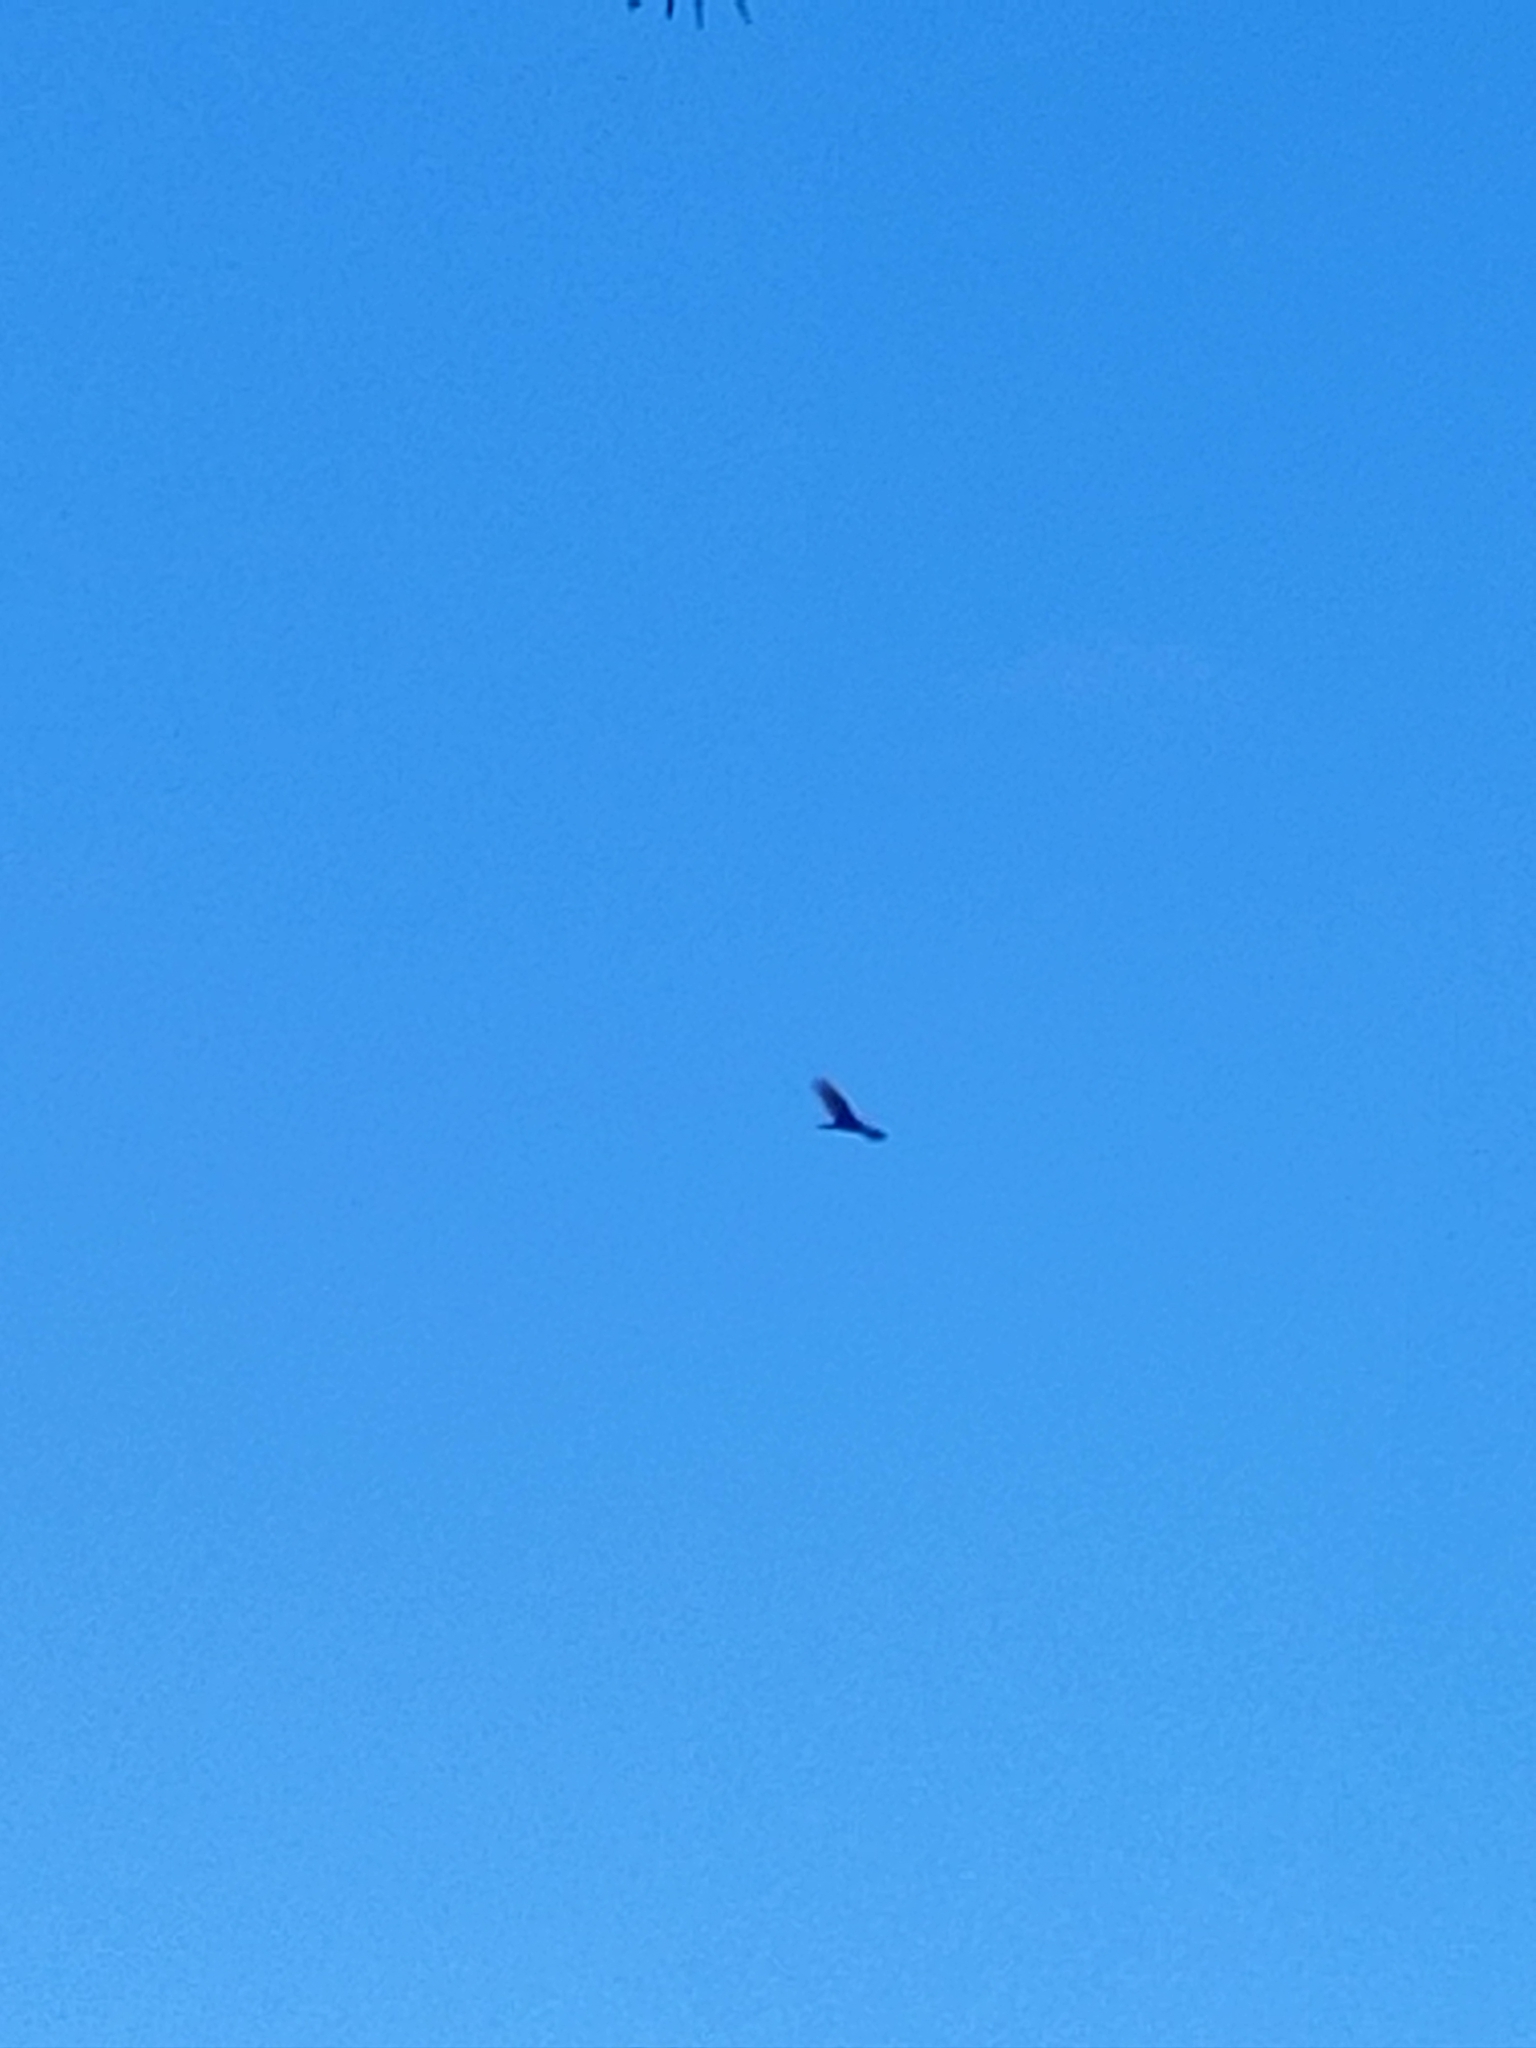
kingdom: Animalia
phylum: Chordata
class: Aves
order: Accipitriformes
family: Cathartidae
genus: Coragyps
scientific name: Coragyps atratus
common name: Black vulture
